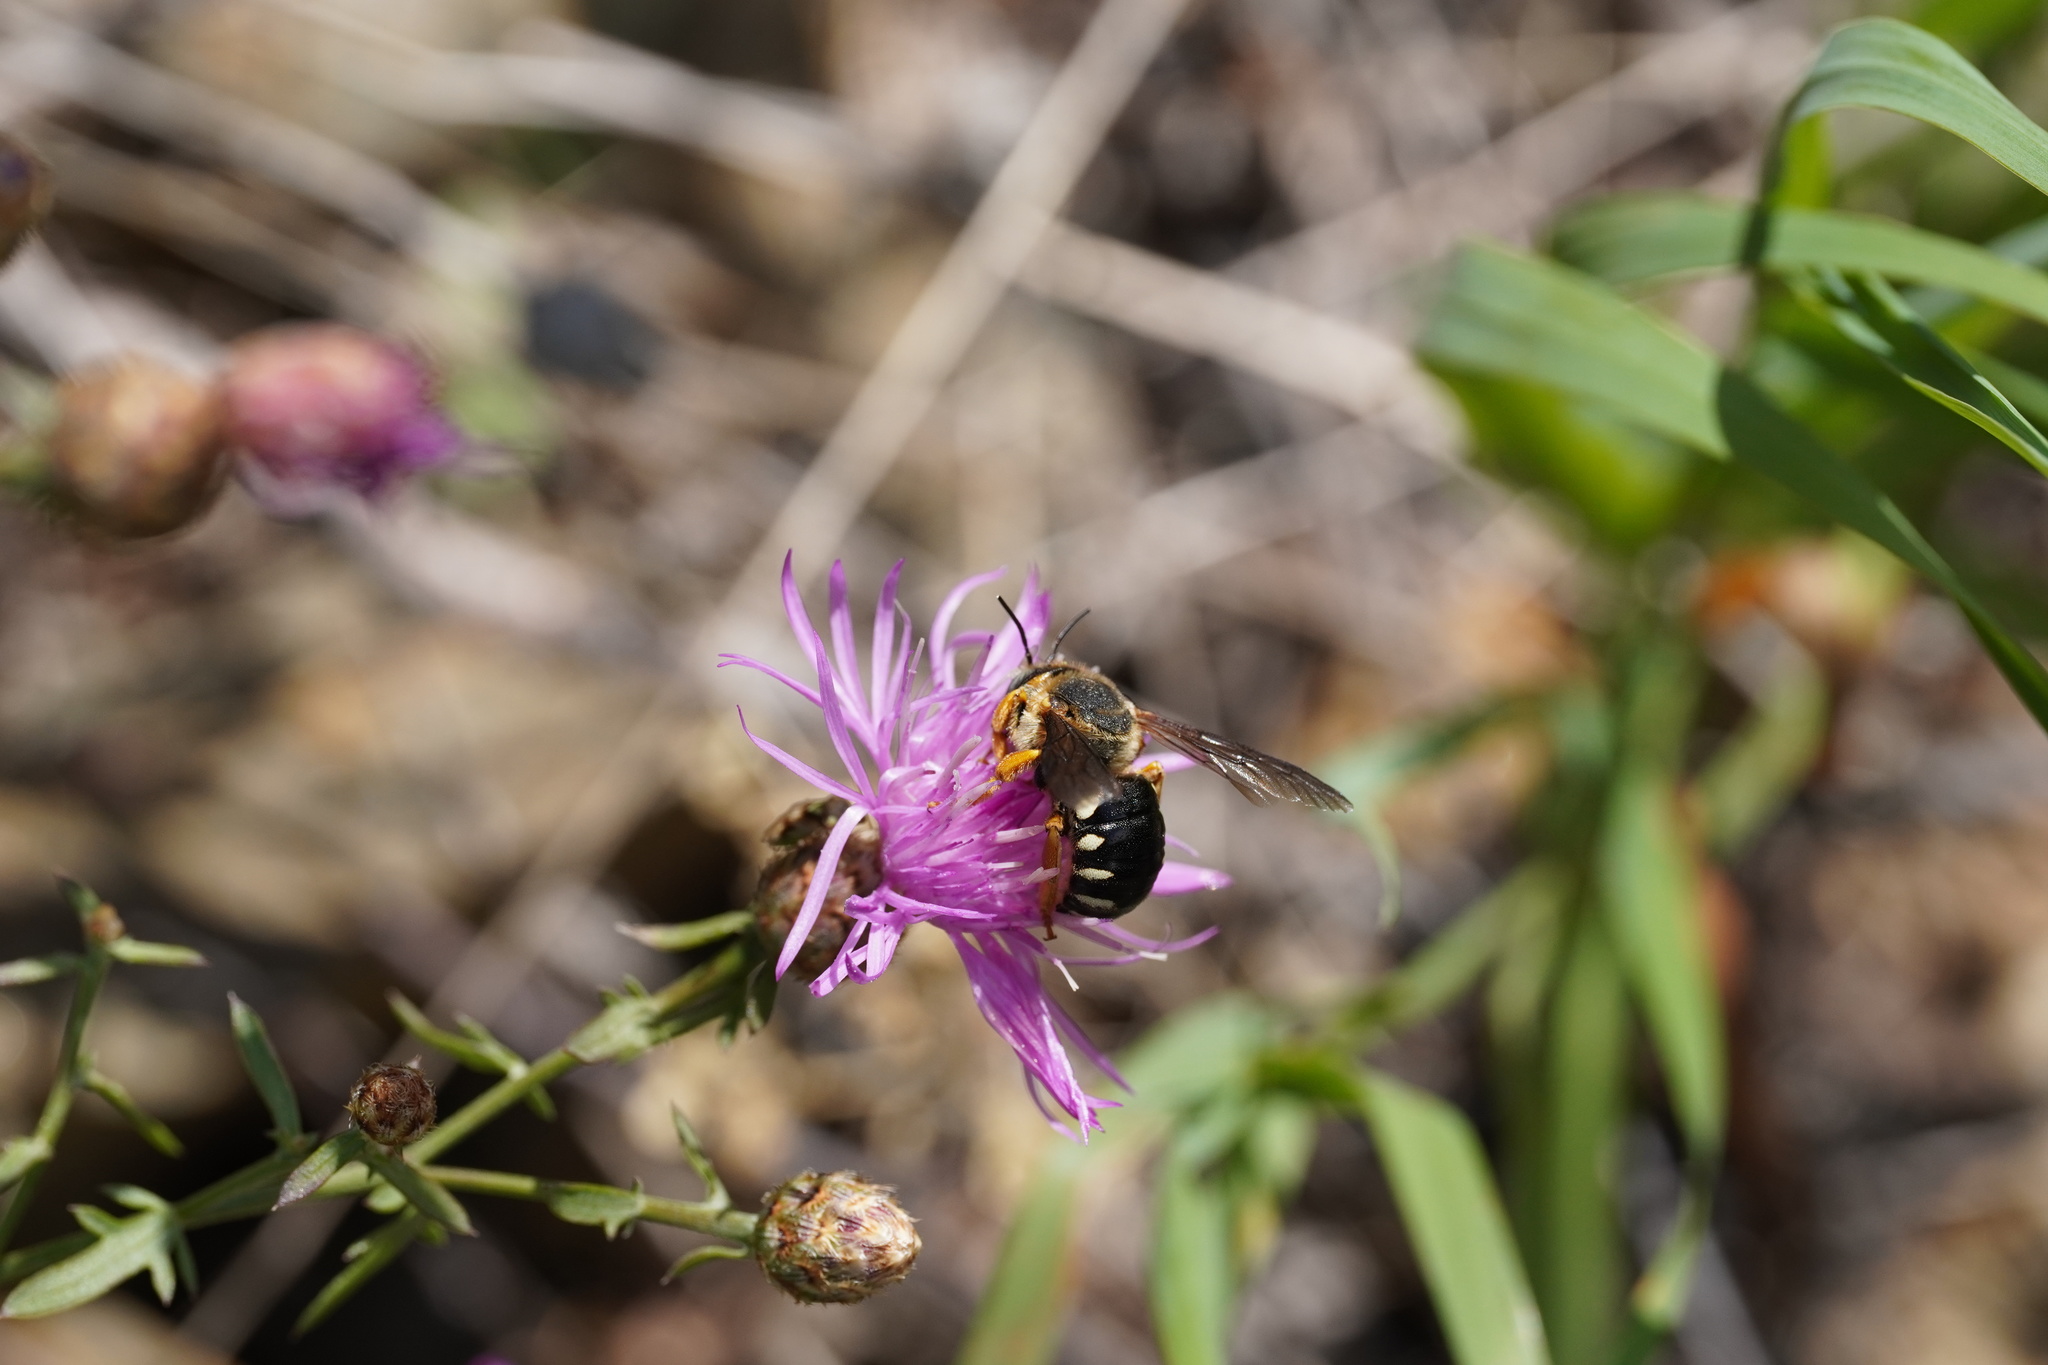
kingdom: Animalia
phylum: Arthropoda
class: Insecta
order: Hymenoptera
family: Megachilidae
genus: Icteranthidium
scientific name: Icteranthidium laterale
